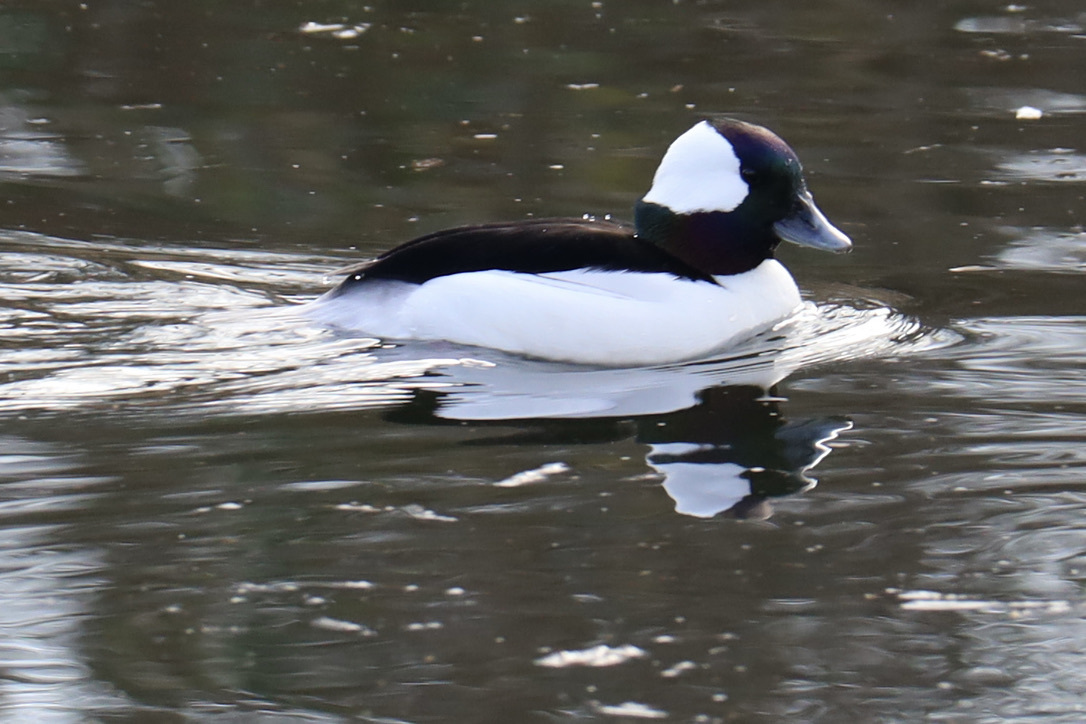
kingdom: Animalia
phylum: Chordata
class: Aves
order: Anseriformes
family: Anatidae
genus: Bucephala
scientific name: Bucephala albeola
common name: Bufflehead
